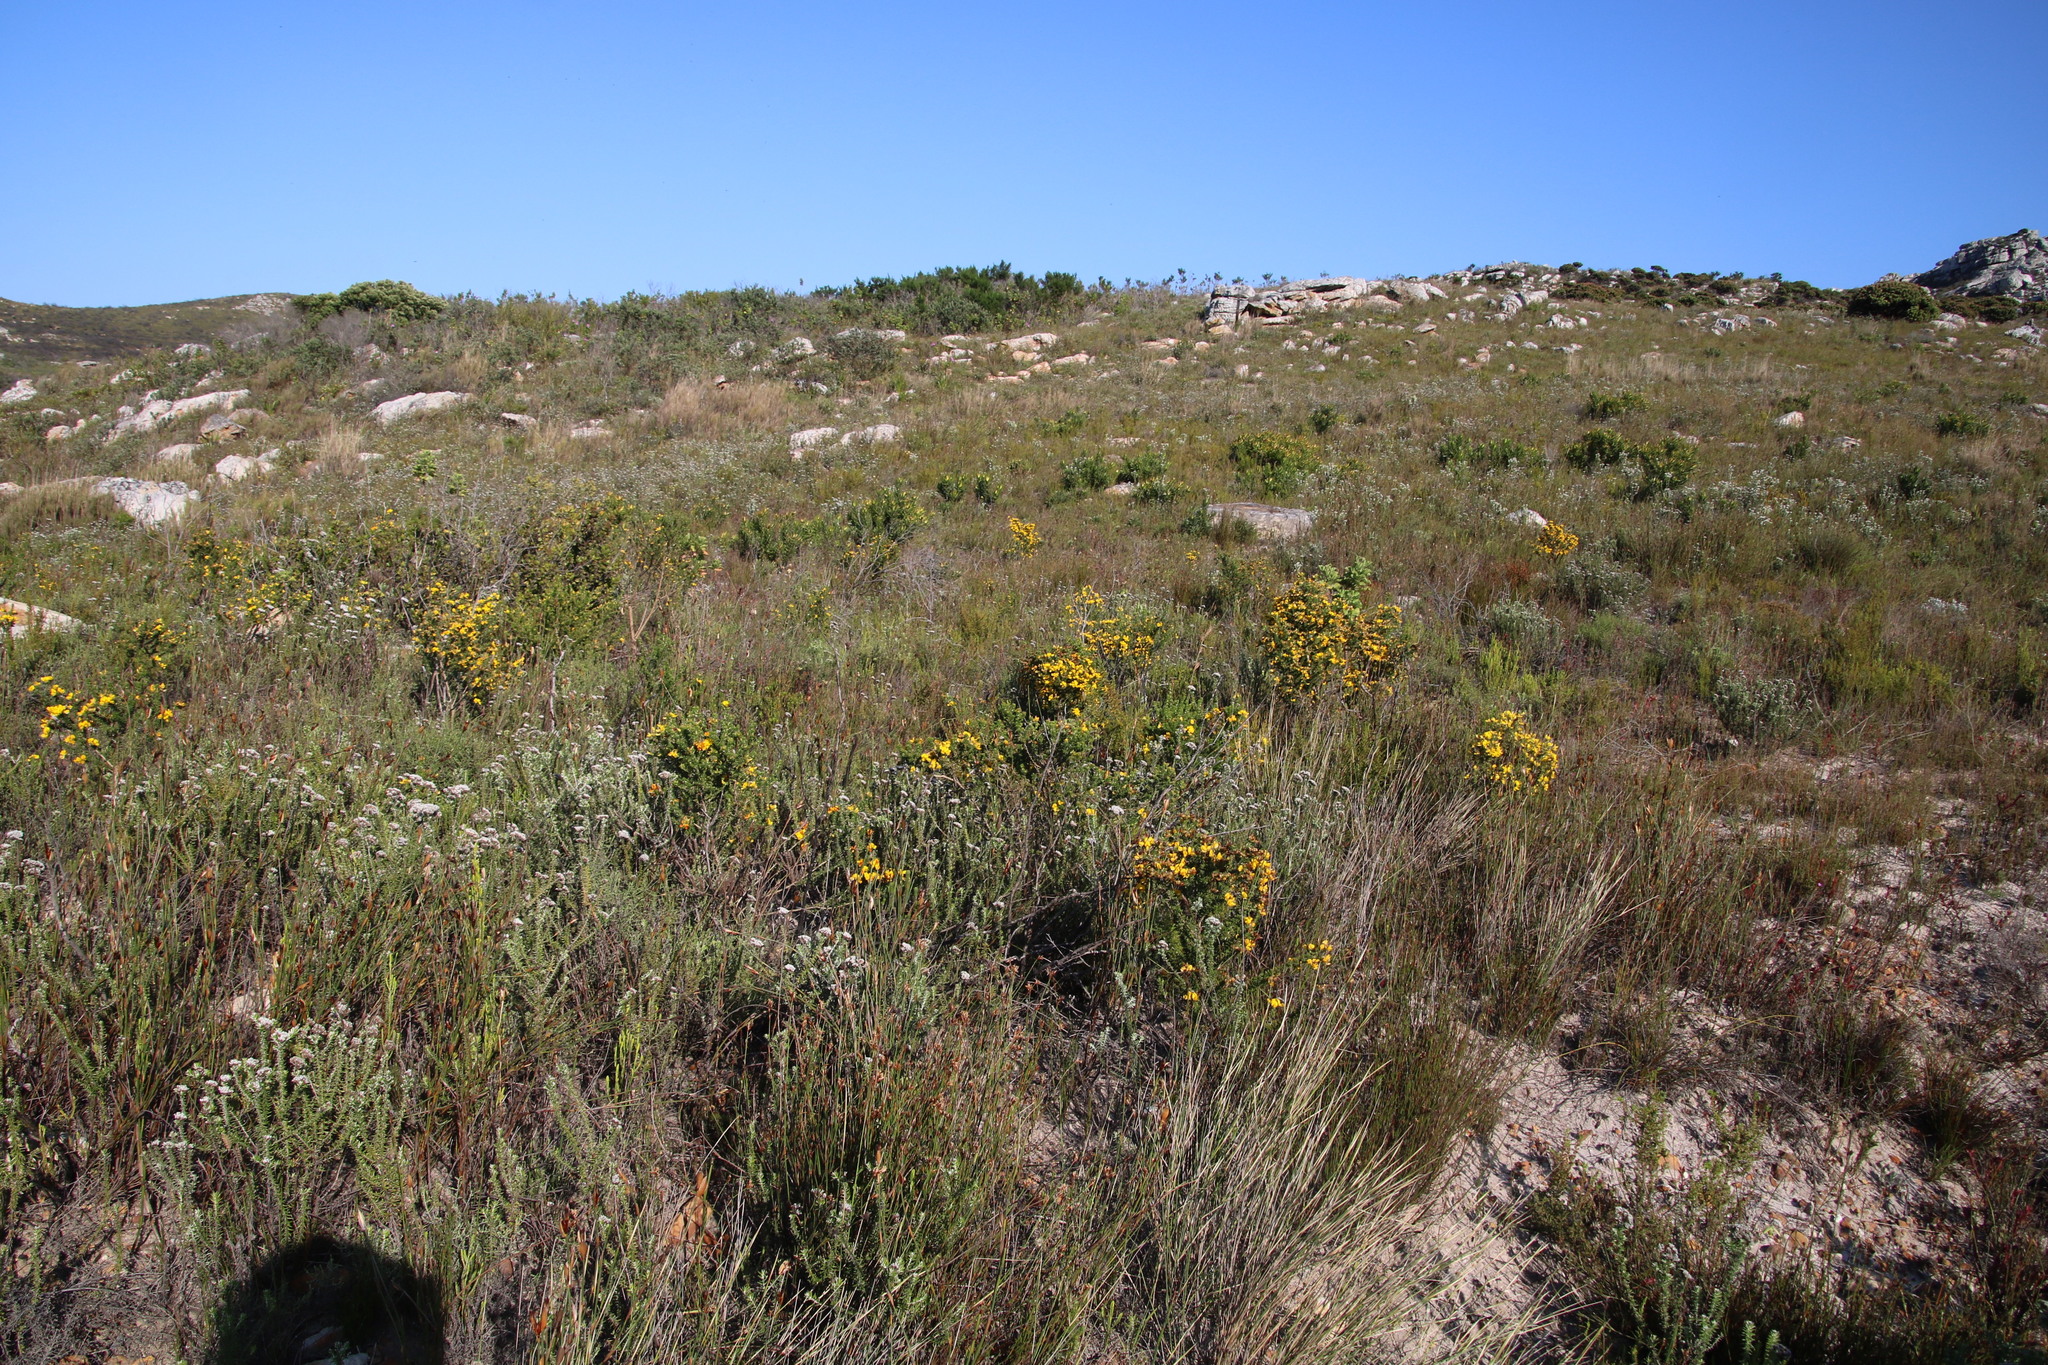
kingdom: Plantae
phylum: Tracheophyta
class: Magnoliopsida
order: Fabales
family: Fabaceae
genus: Aspalathus
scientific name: Aspalathus carnosa
